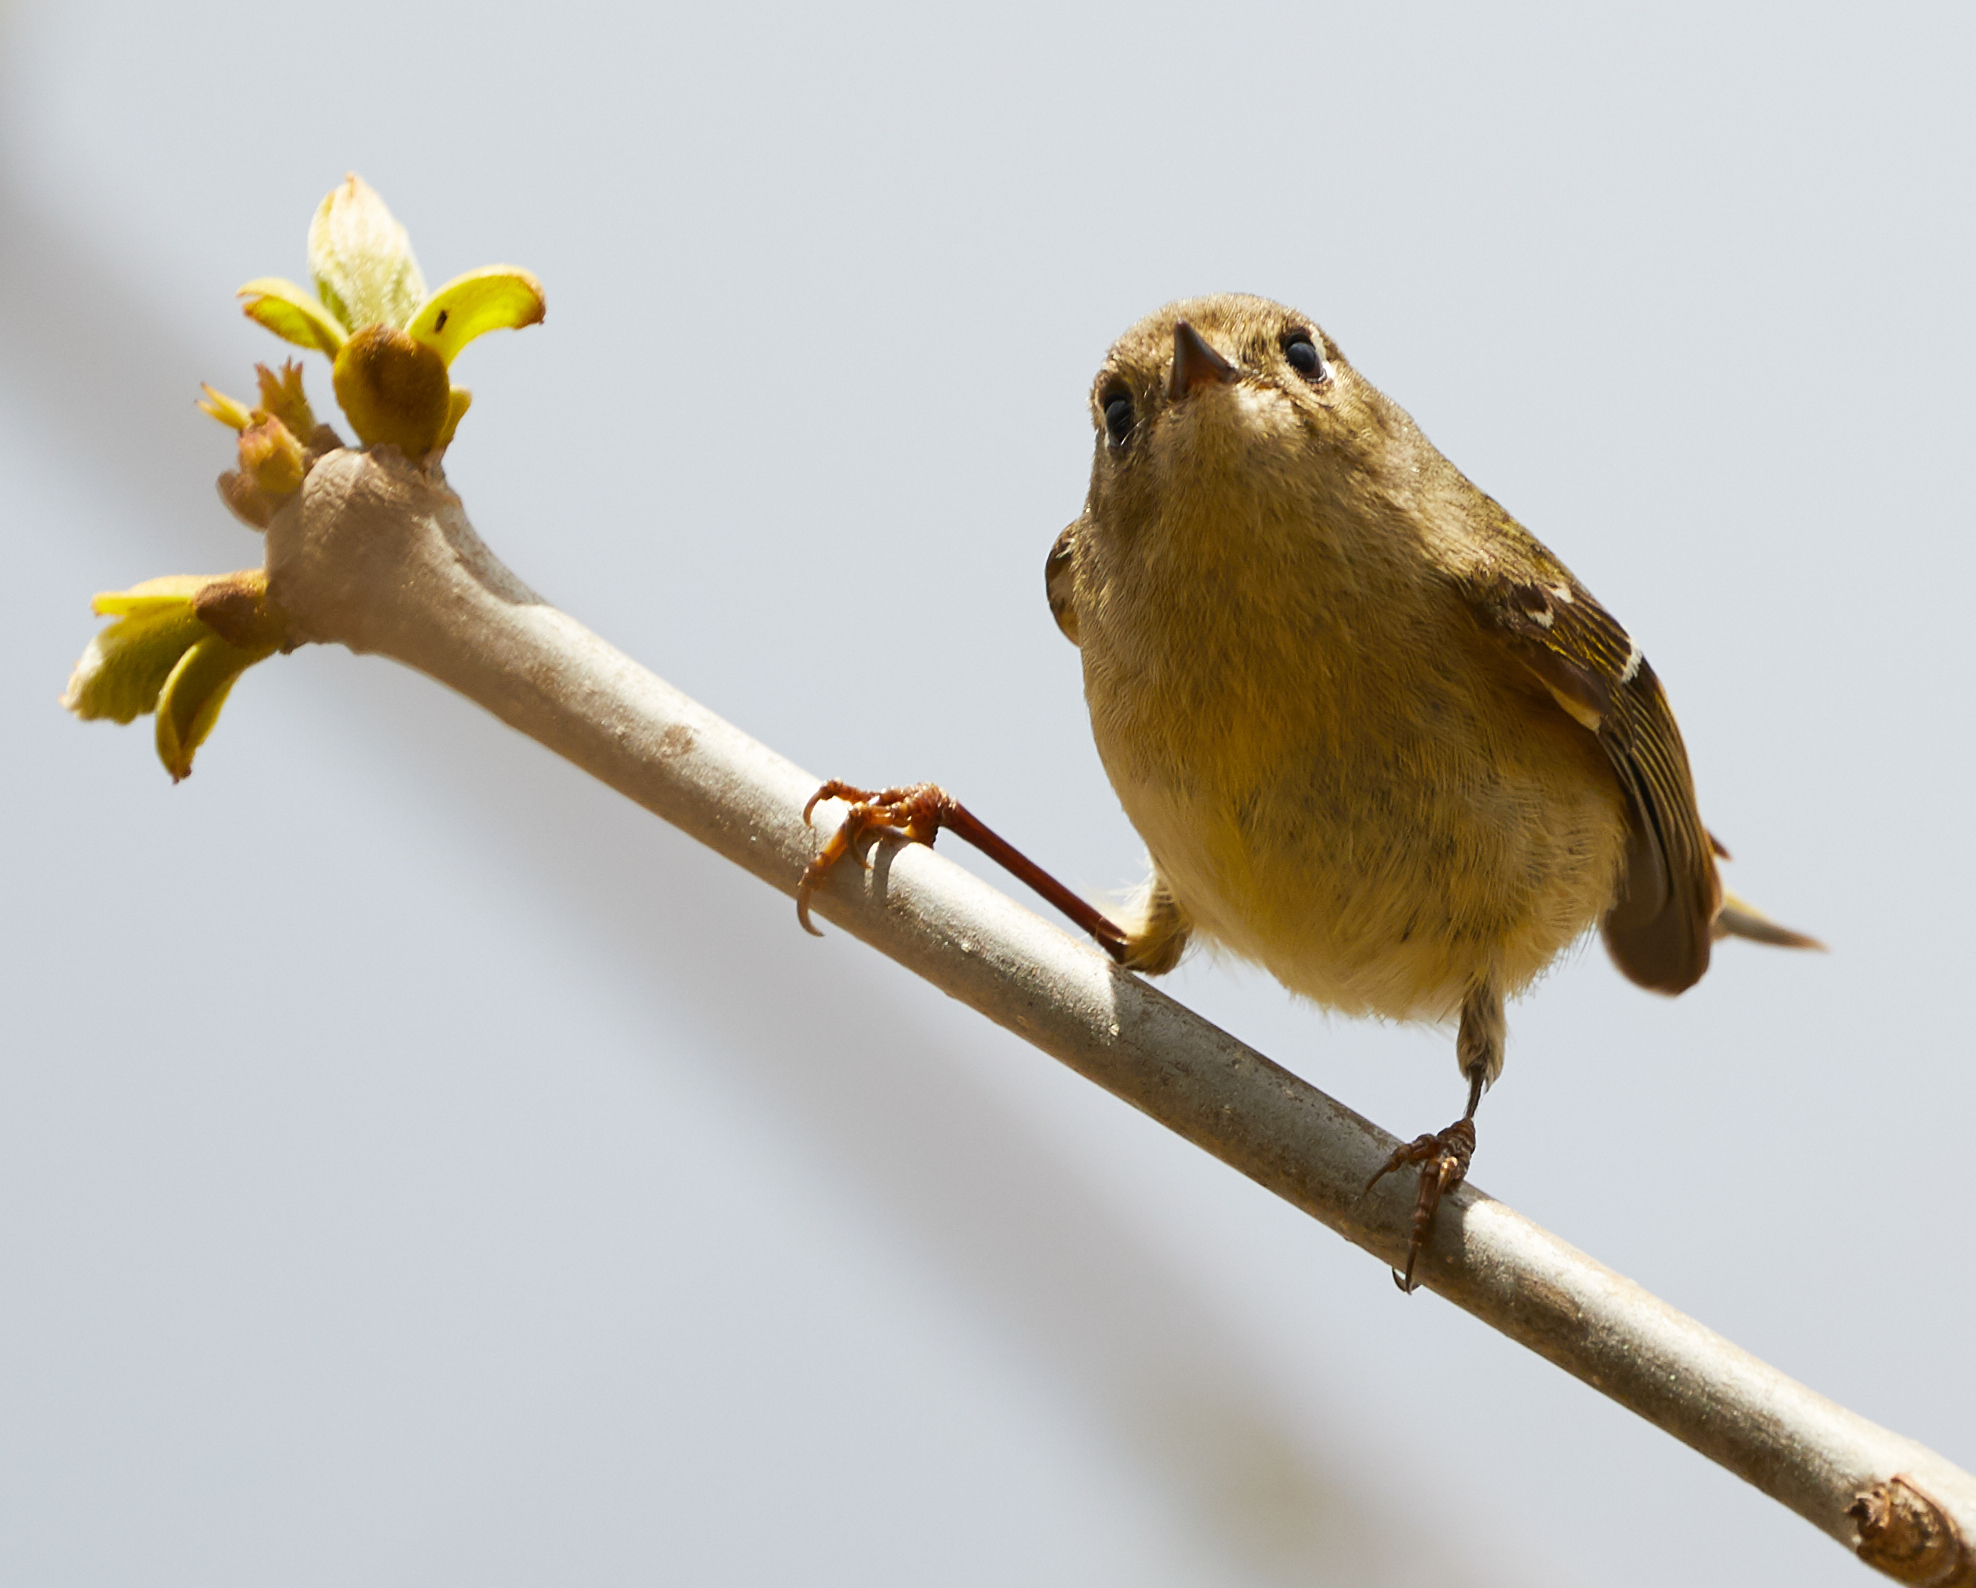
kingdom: Animalia
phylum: Chordata
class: Aves
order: Passeriformes
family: Regulidae
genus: Regulus
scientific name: Regulus calendula
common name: Ruby-crowned kinglet
